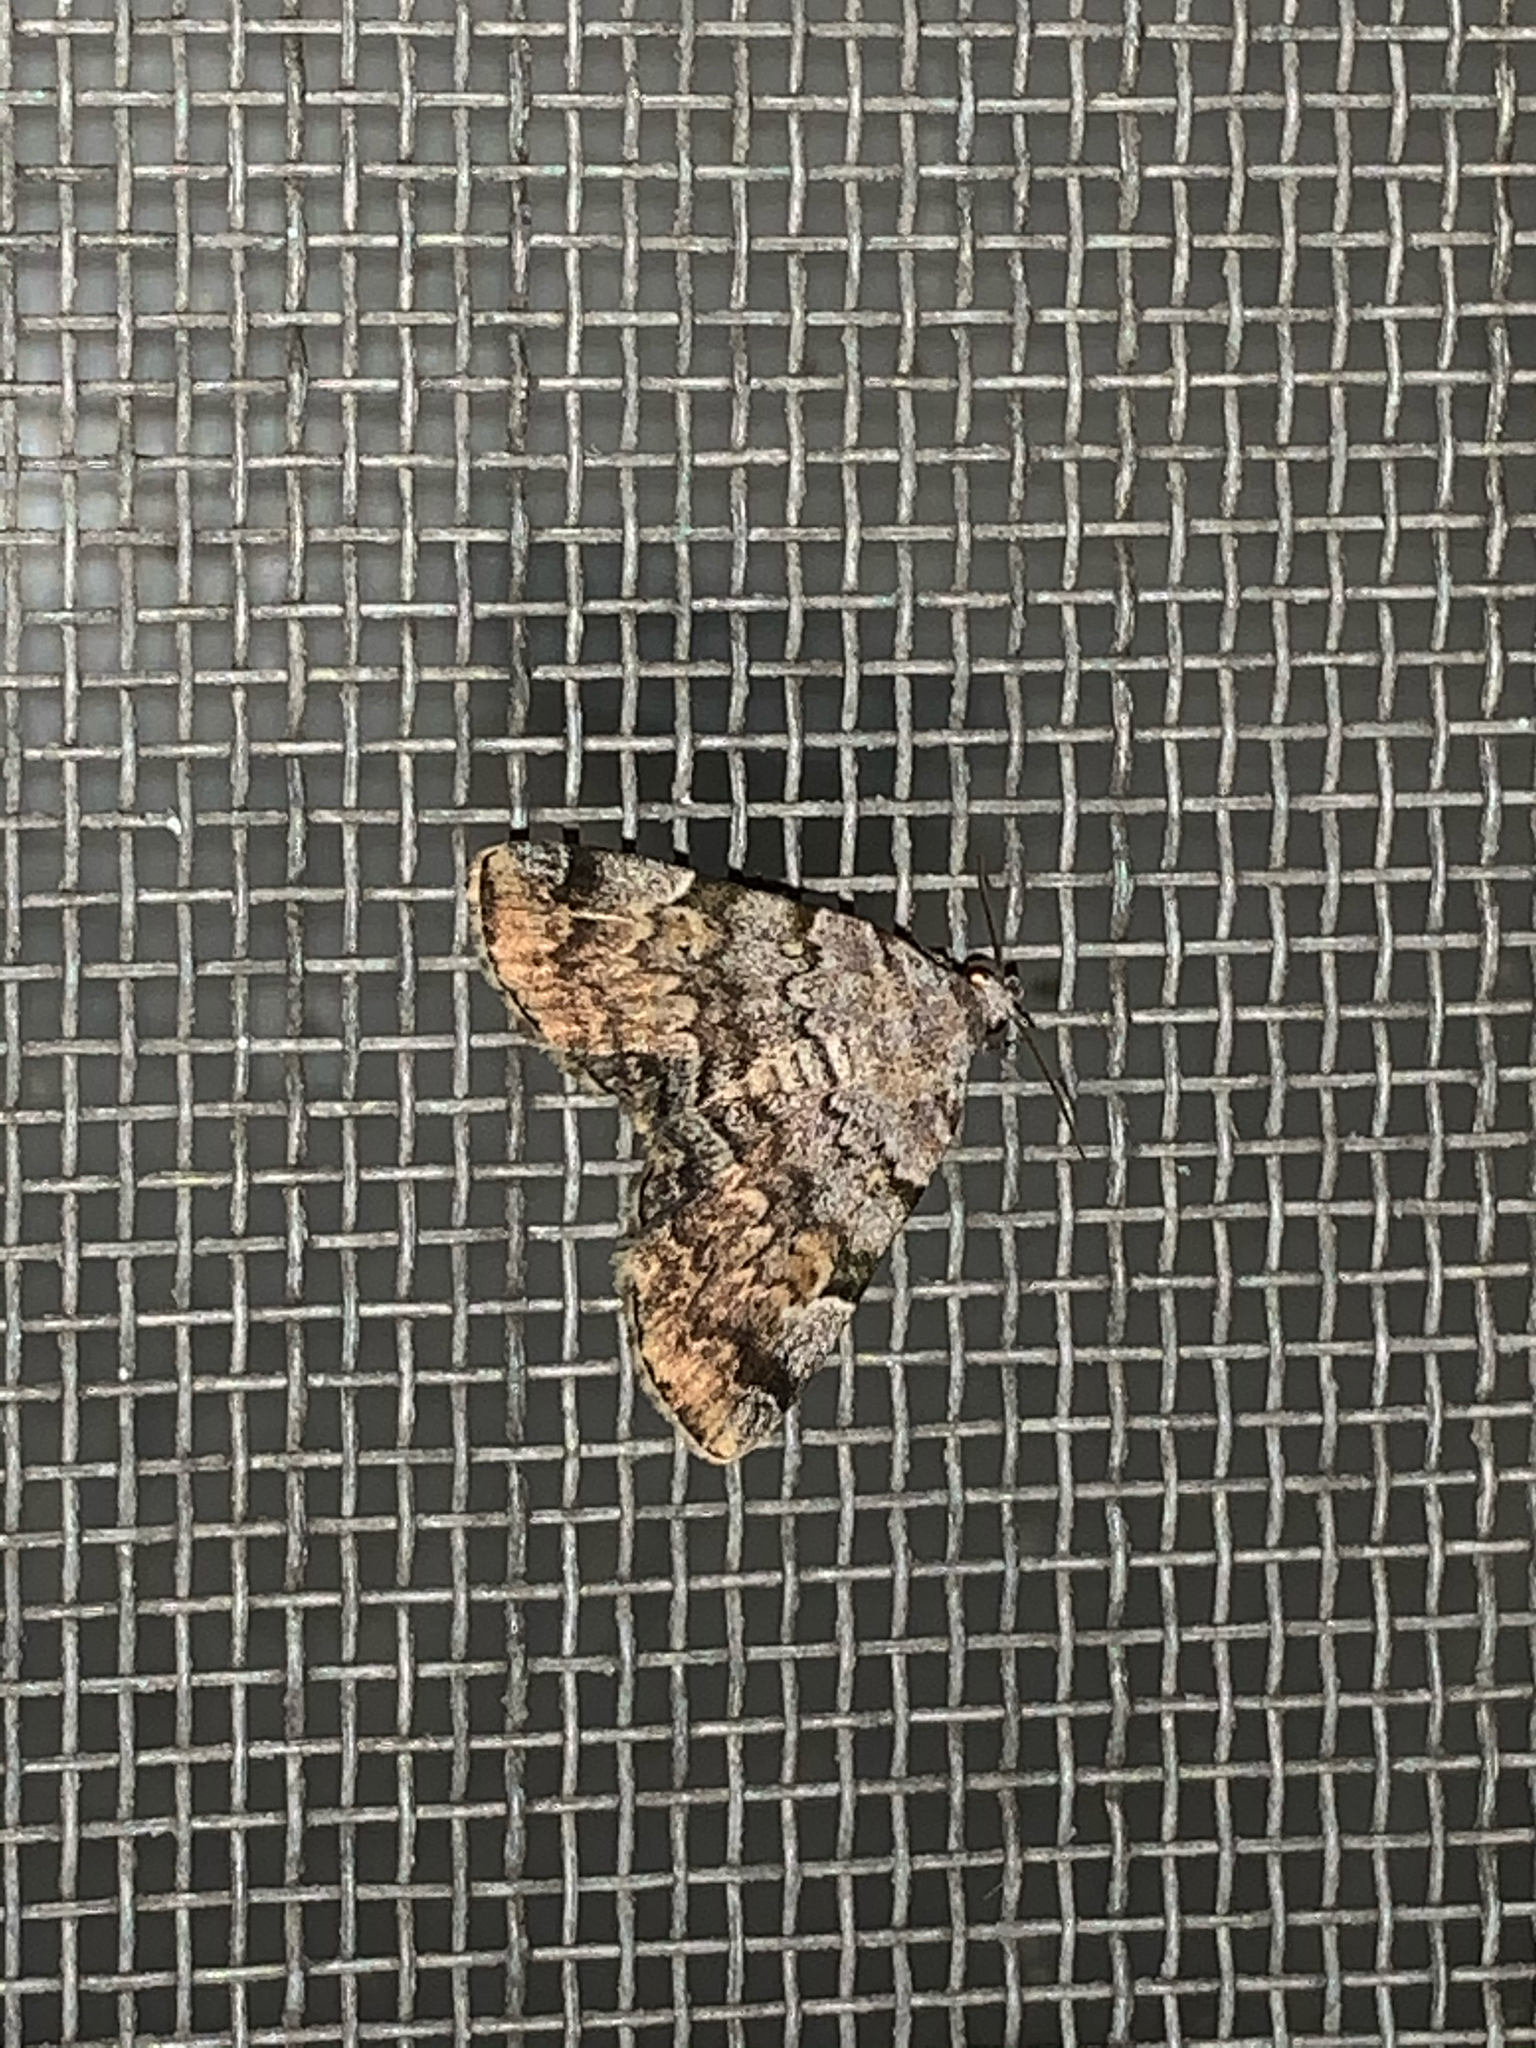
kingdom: Animalia
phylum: Arthropoda
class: Insecta
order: Lepidoptera
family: Erebidae
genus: Idia
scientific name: Idia americalis
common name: American idia moth
